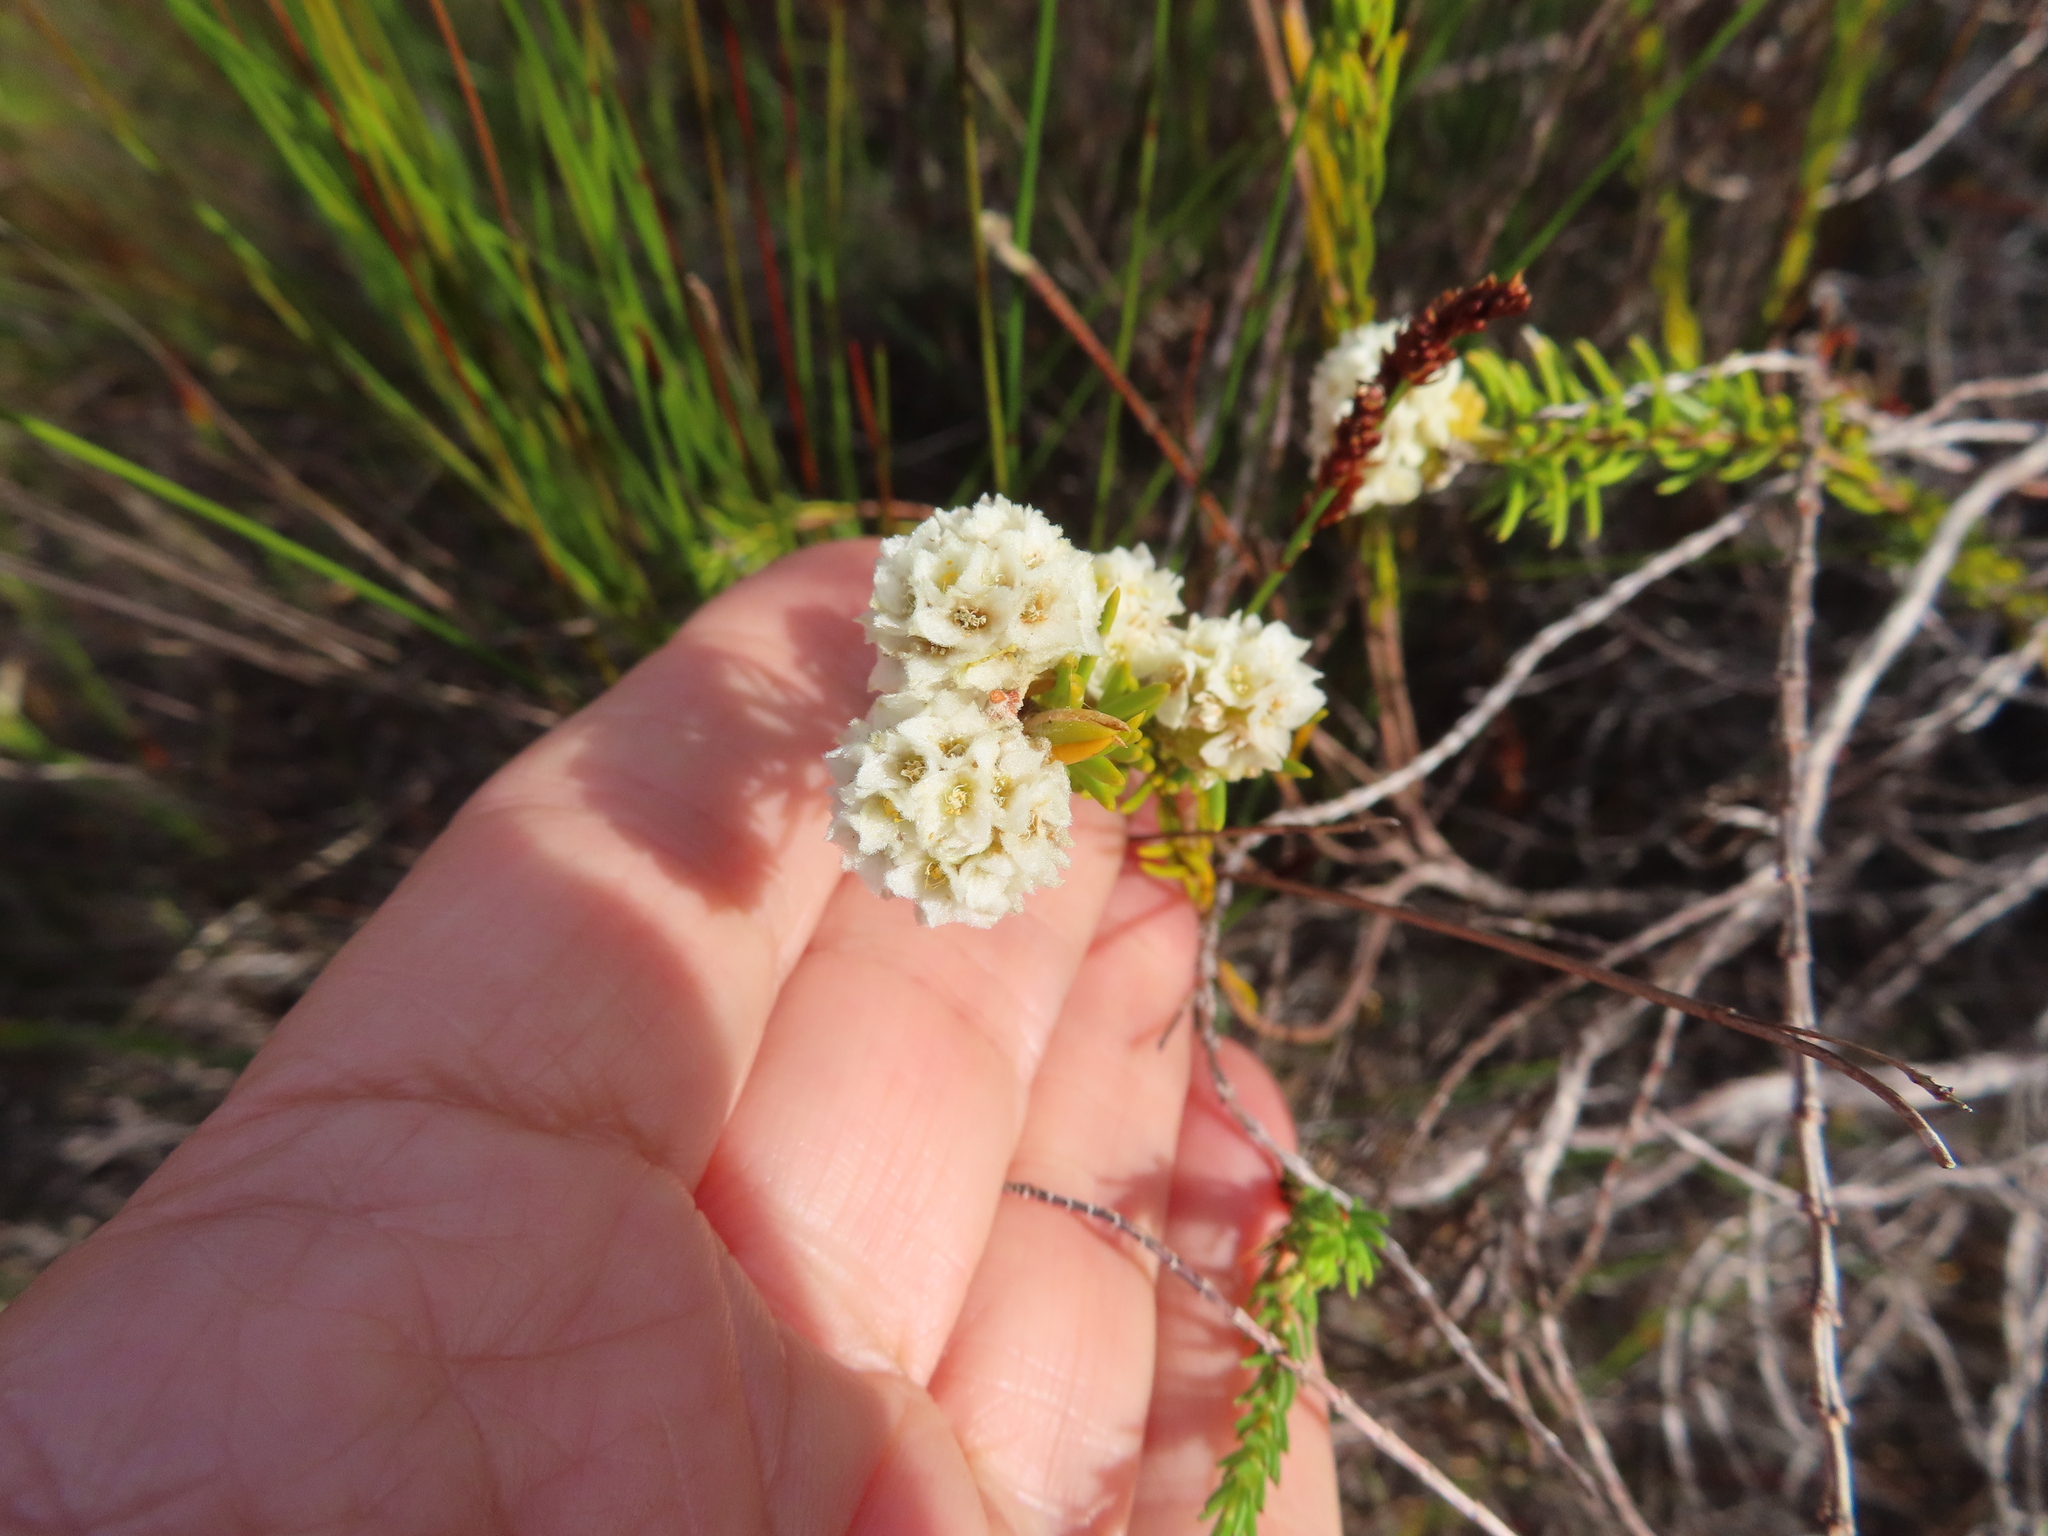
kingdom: Plantae
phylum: Tracheophyta
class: Magnoliopsida
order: Malvales
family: Thymelaeaceae
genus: Lachnaea
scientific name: Lachnaea densiflora
